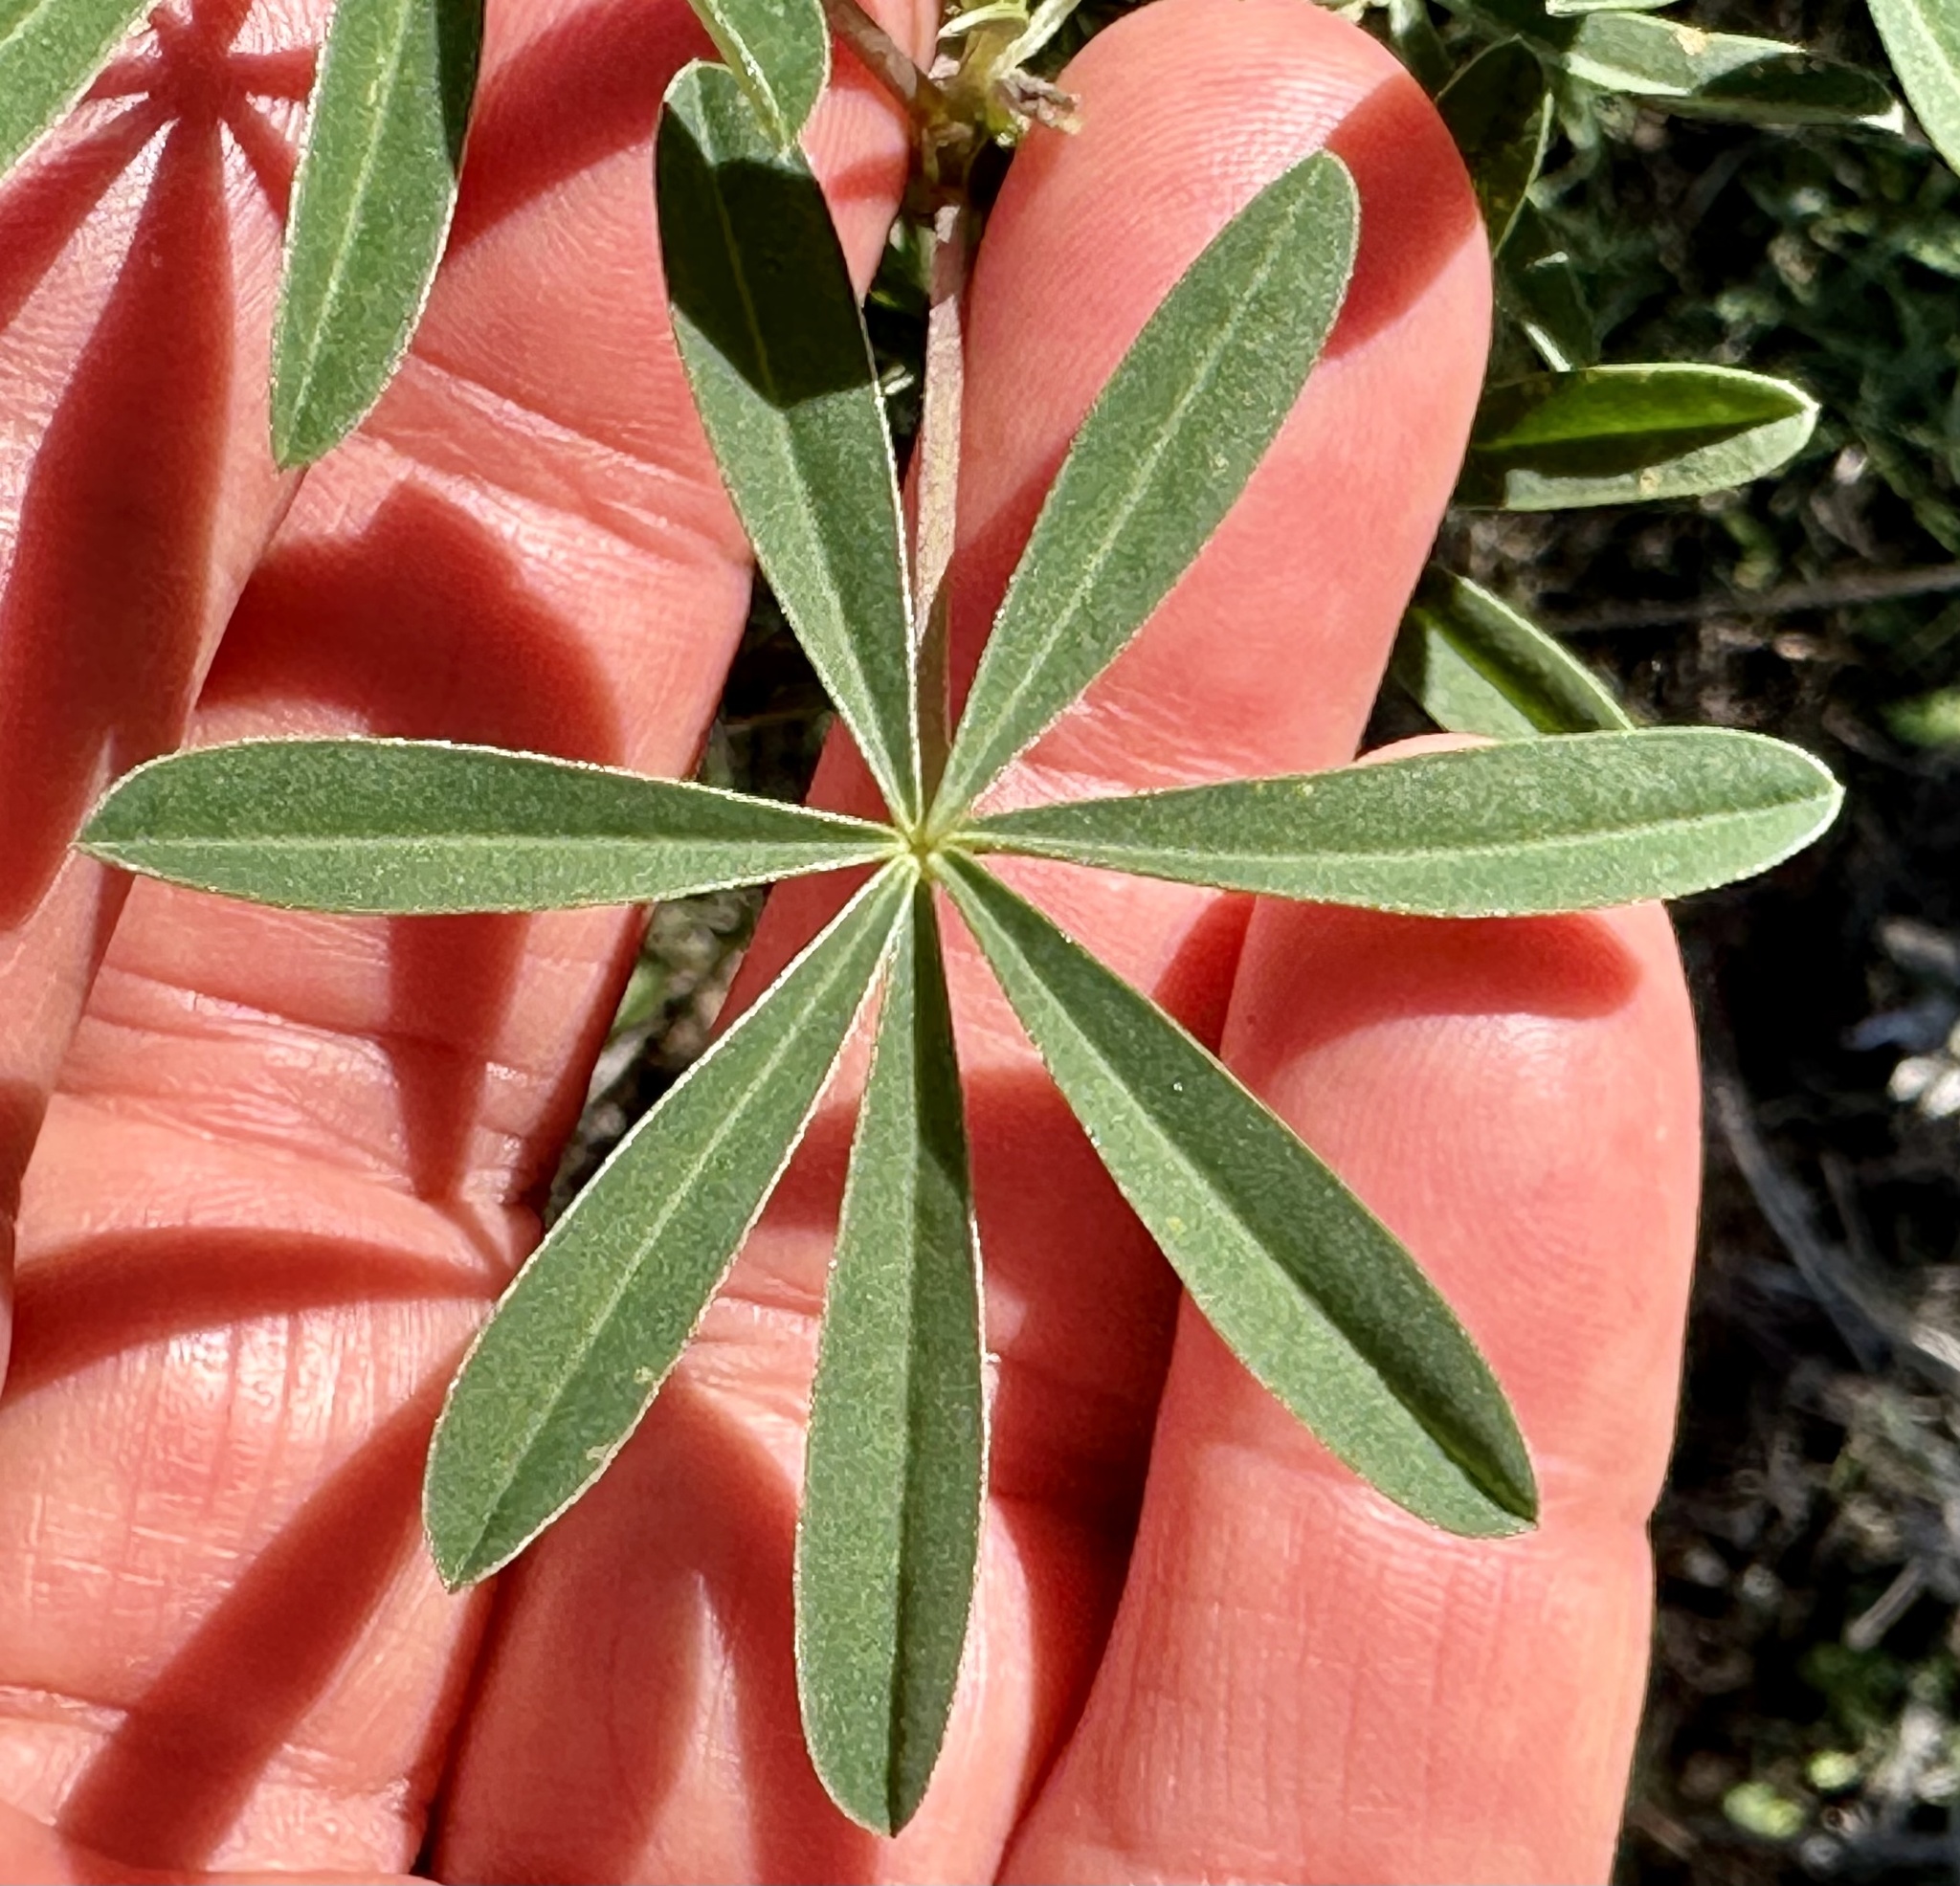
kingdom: Plantae
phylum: Tracheophyta
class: Magnoliopsida
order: Fabales
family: Fabaceae
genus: Lupinus
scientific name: Lupinus arboreus
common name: Yellow bush lupine
